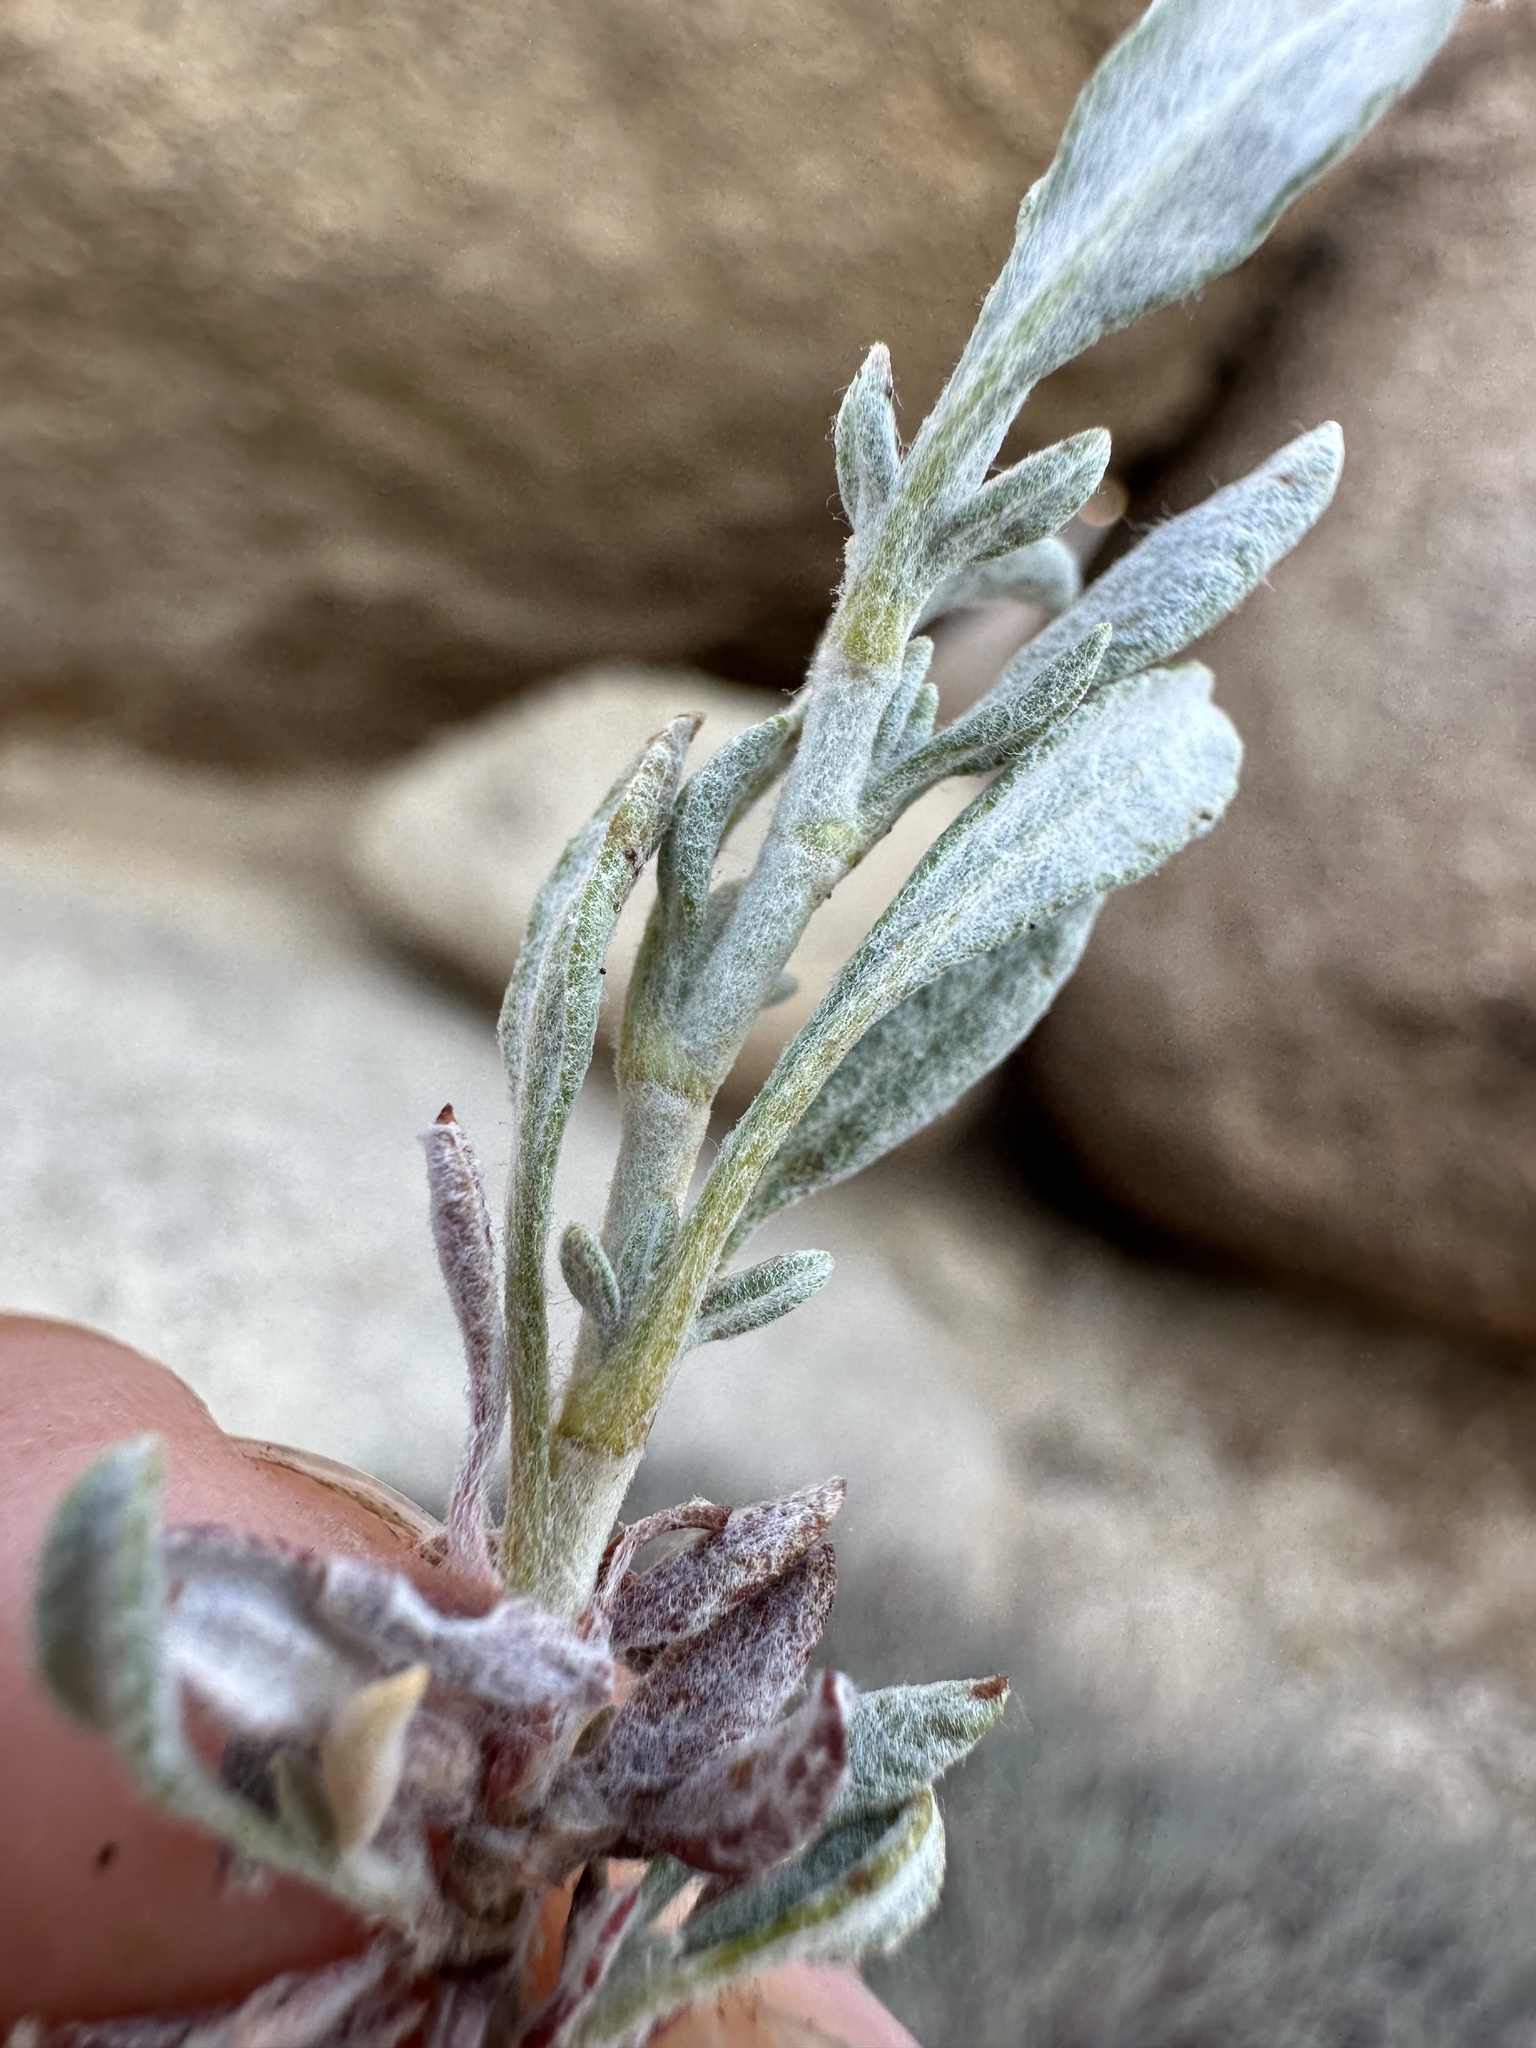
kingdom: Plantae
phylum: Tracheophyta
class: Magnoliopsida
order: Caryophyllales
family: Polygonaceae
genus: Eriogonum
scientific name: Eriogonum wrightii
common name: Bastard-sage
